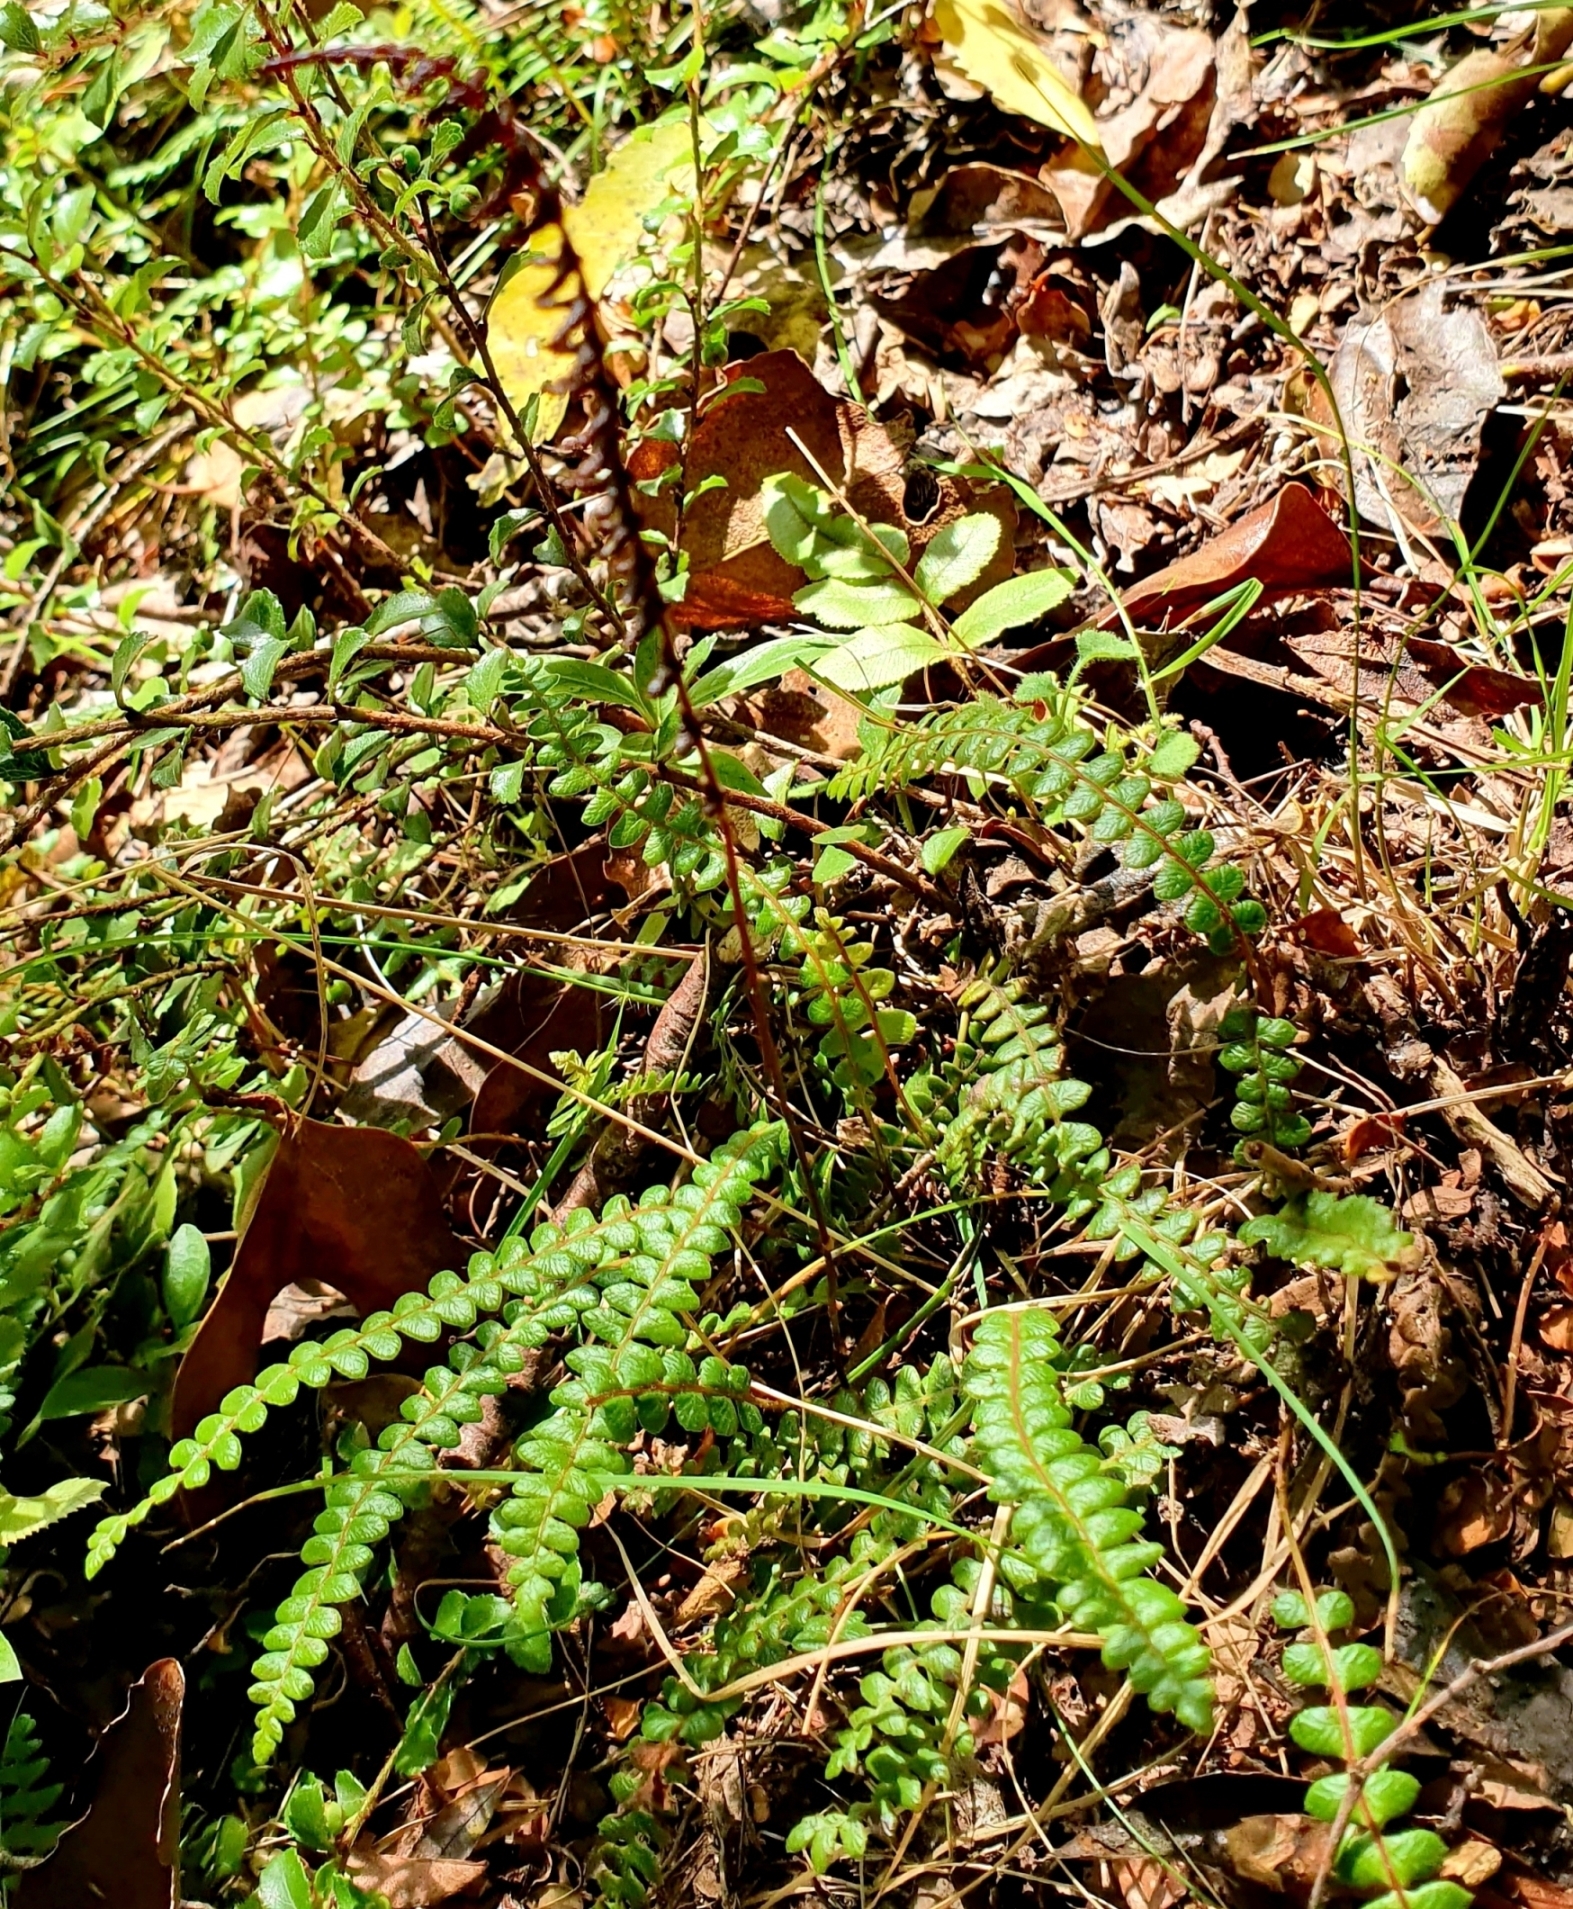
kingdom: Plantae
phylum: Tracheophyta
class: Polypodiopsida
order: Polypodiales
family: Blechnaceae
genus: Austroblechnum
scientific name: Austroblechnum penna-marina
